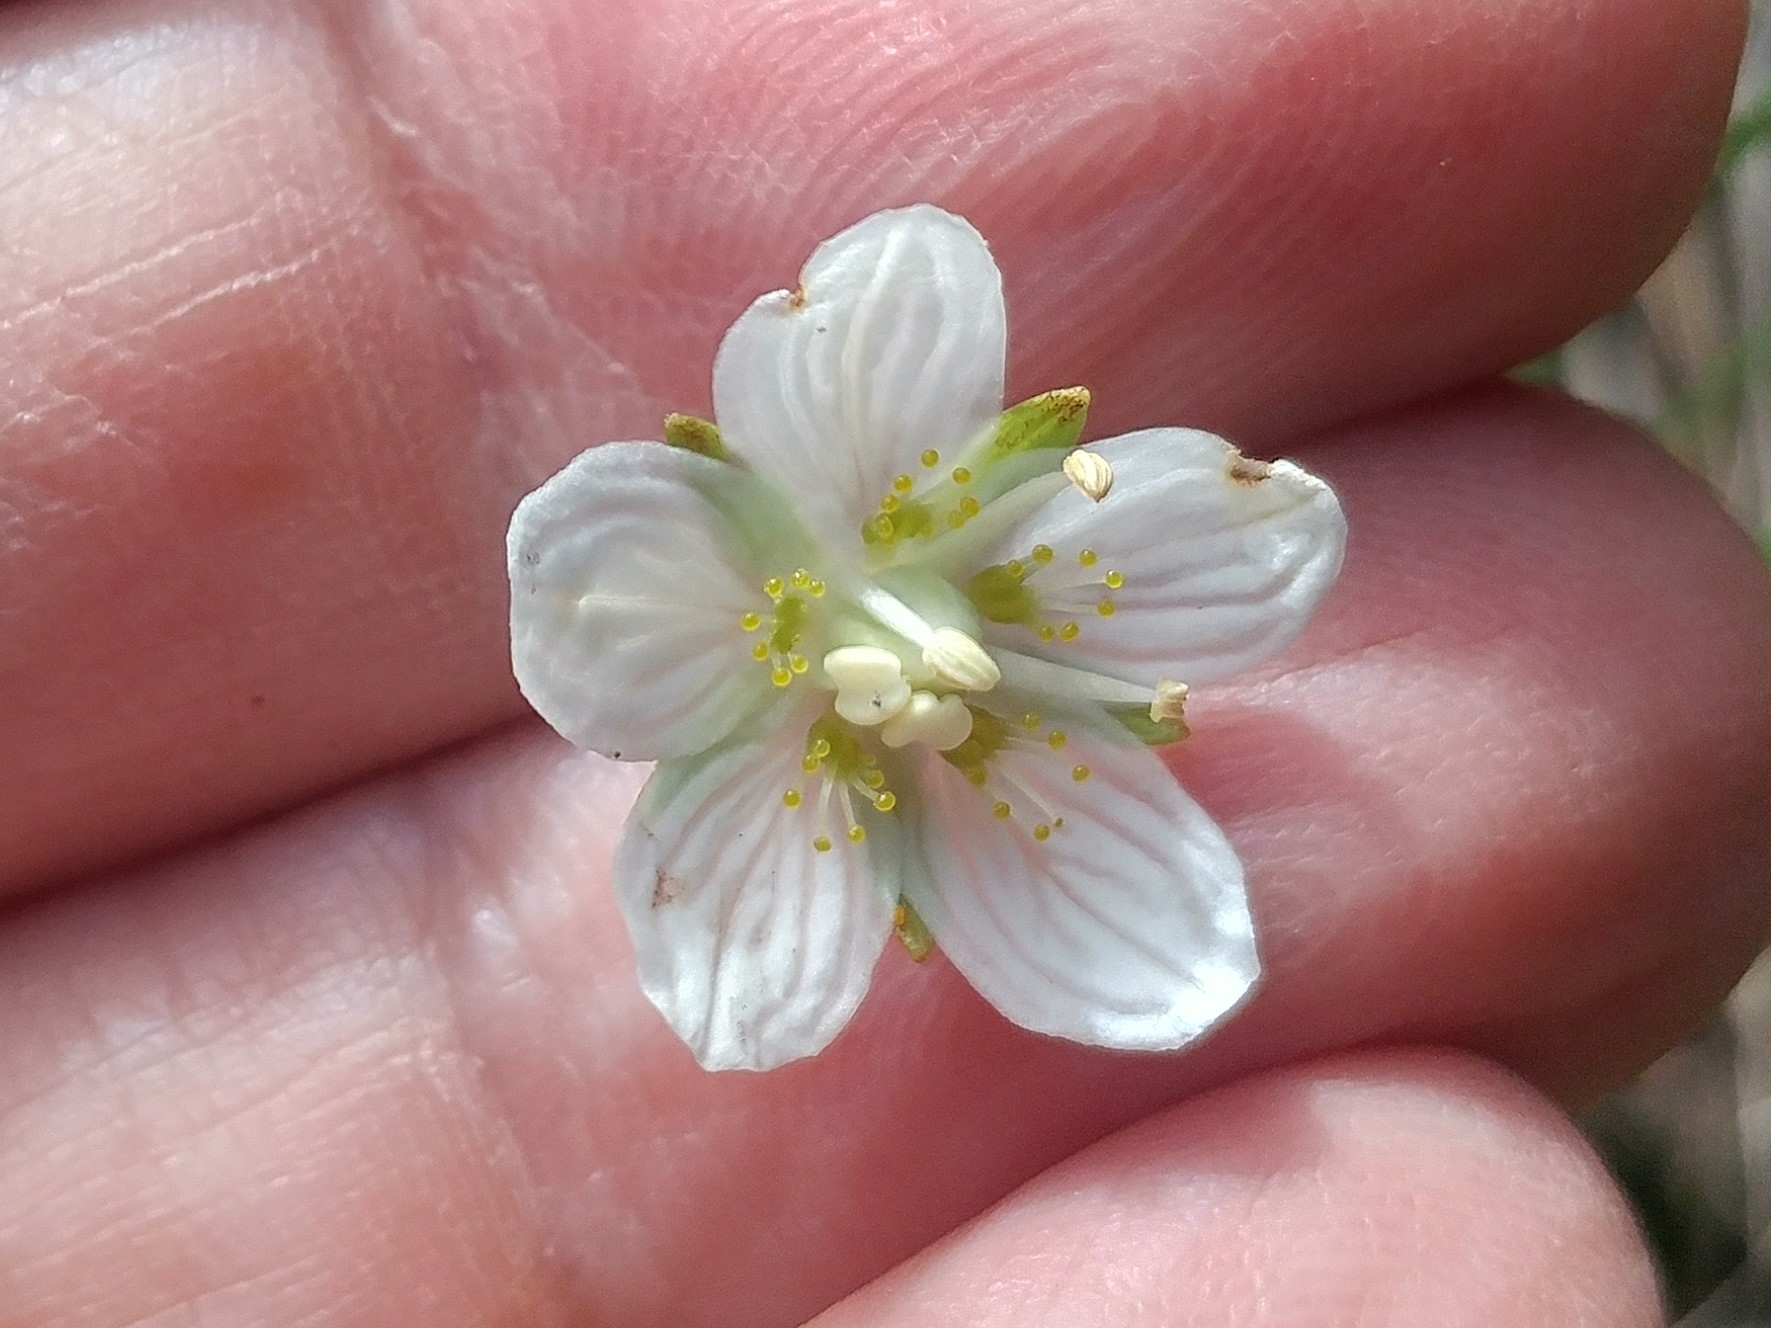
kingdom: Plantae
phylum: Tracheophyta
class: Magnoliopsida
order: Celastrales
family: Parnassiaceae
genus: Parnassia
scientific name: Parnassia parviflora
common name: Small-flowered grass-of-parnassus
